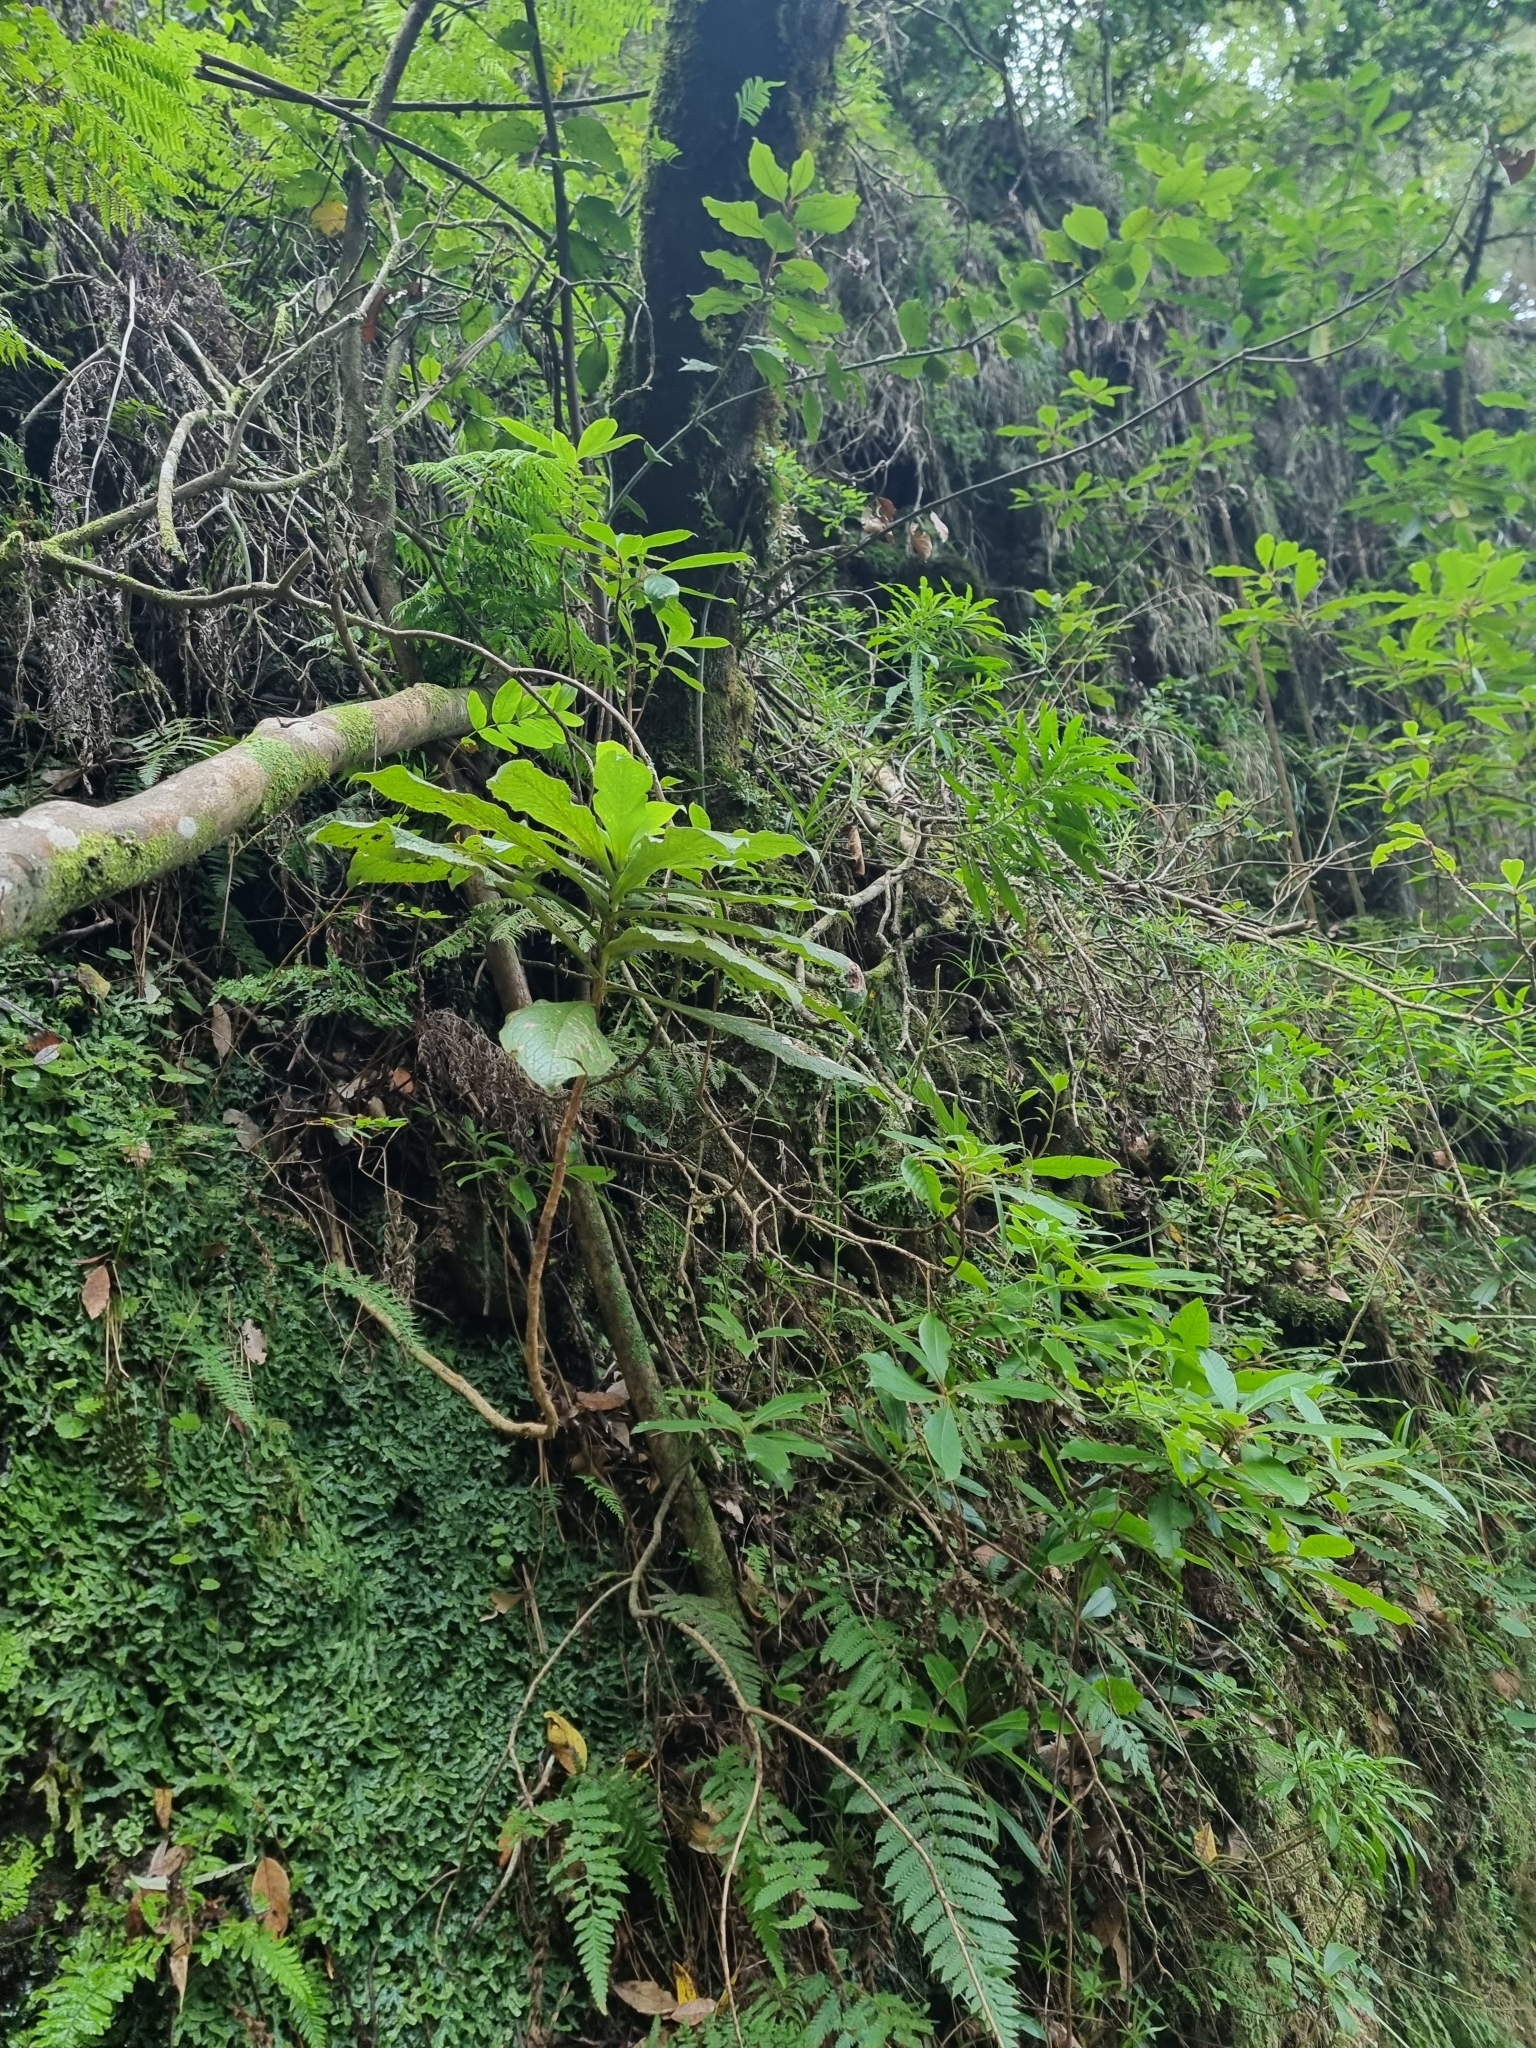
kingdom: Plantae
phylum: Tracheophyta
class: Magnoliopsida
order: Lamiales
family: Plantaginaceae
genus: Digitalis
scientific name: Digitalis sceptrum
